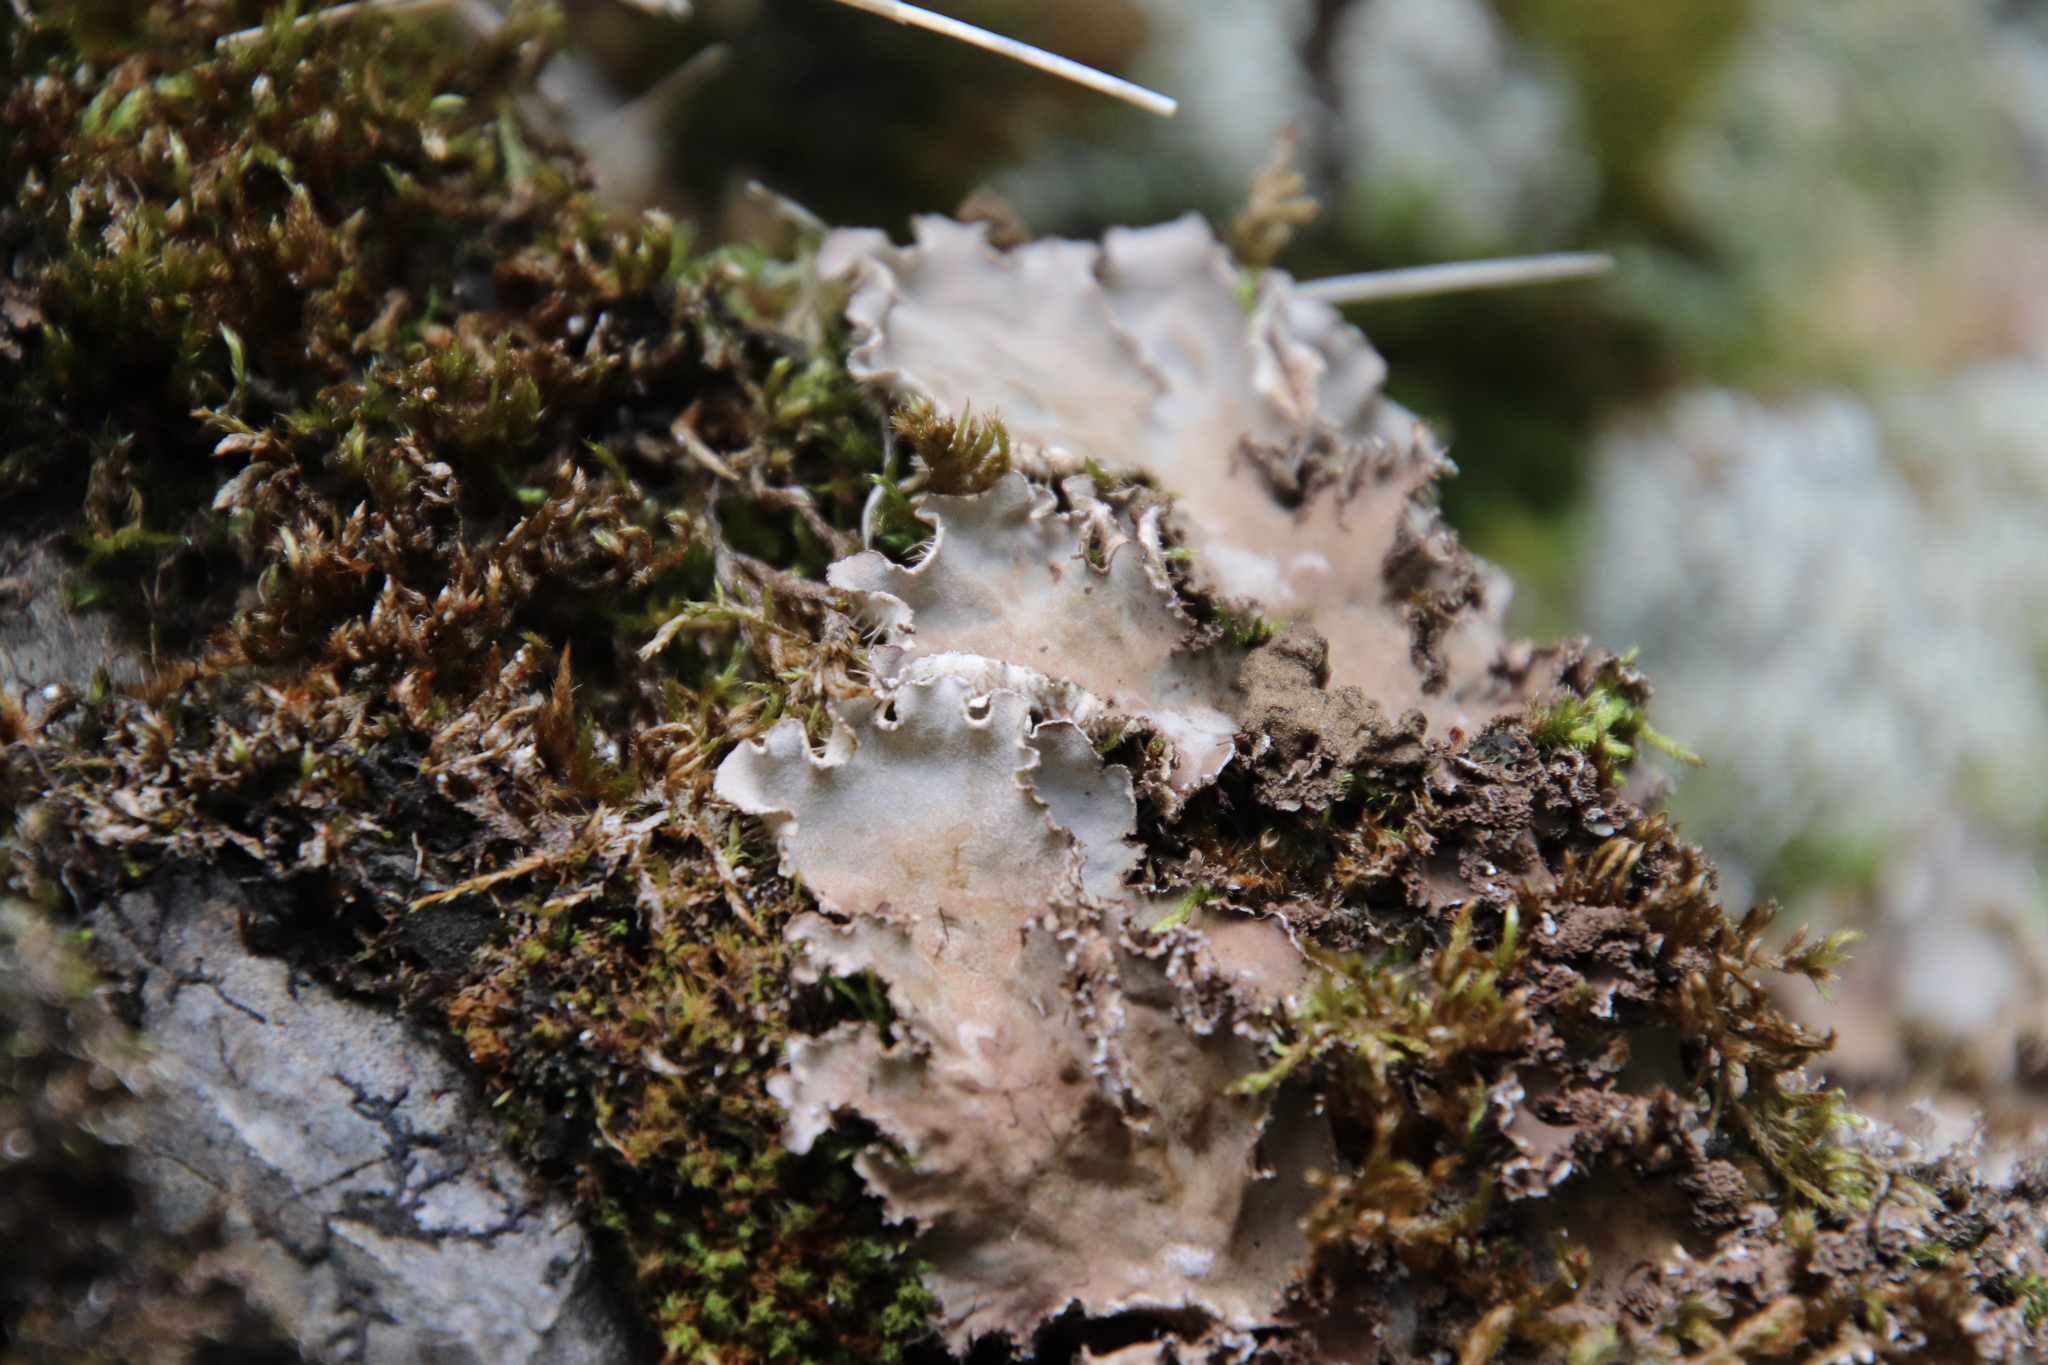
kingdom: Fungi
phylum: Ascomycota
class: Lecanoromycetes
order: Peltigerales
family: Peltigeraceae
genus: Peltigera
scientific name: Peltigera praetextata
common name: Scaly dog-lichen
